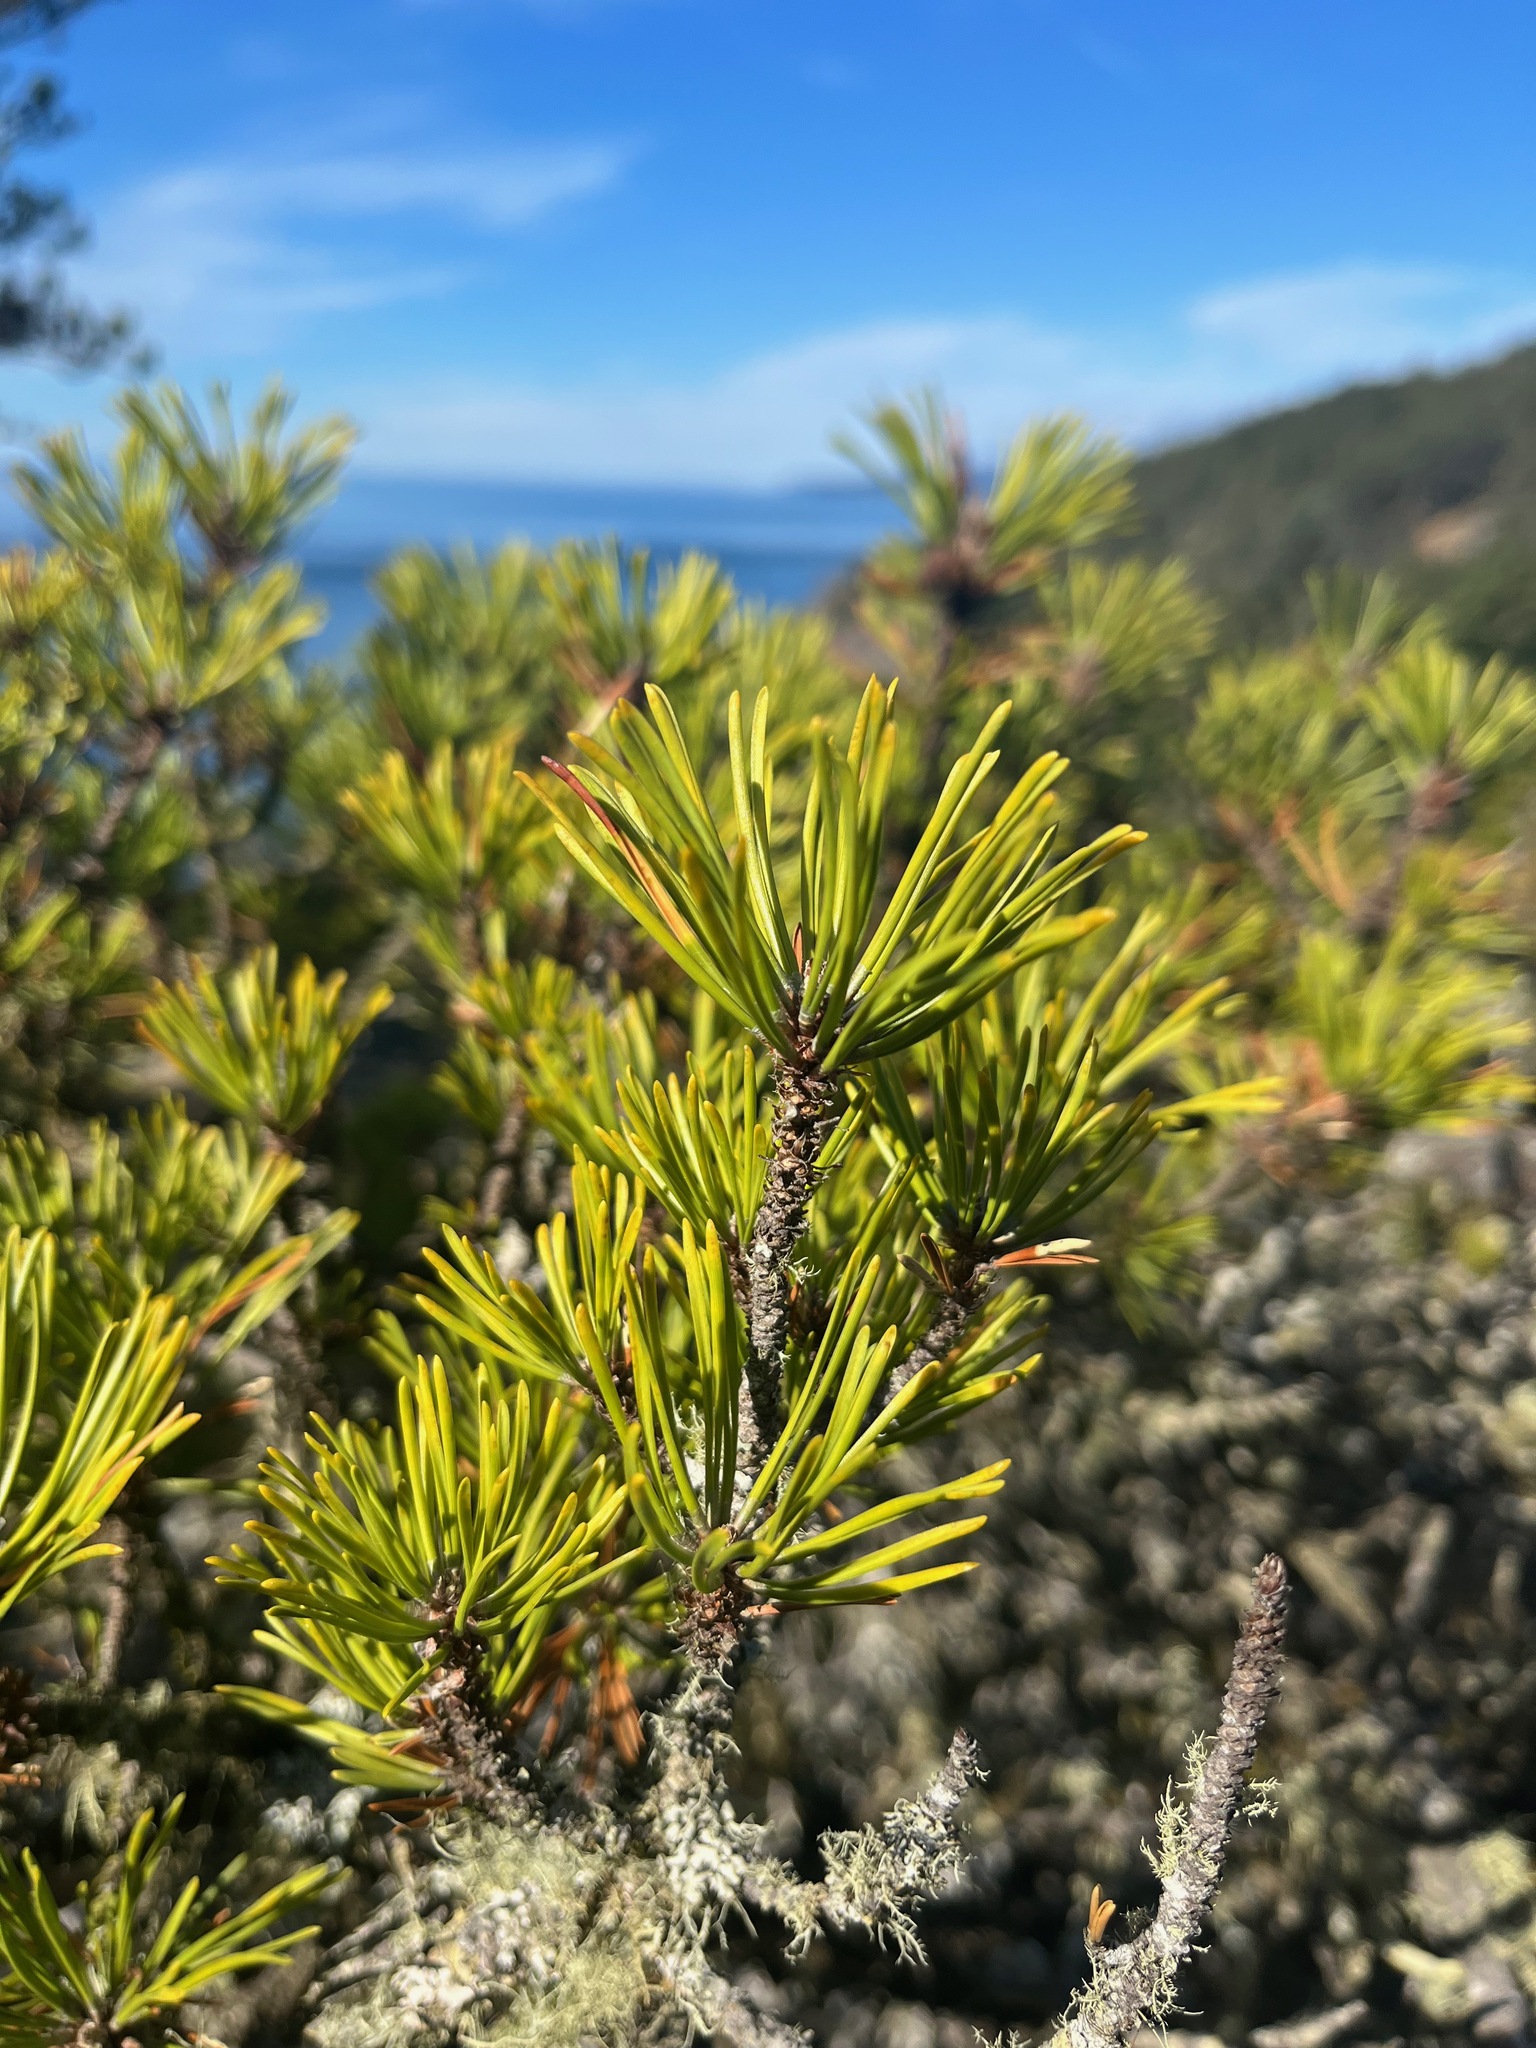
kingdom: Plantae
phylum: Tracheophyta
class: Pinopsida
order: Pinales
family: Pinaceae
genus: Pinus
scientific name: Pinus contorta
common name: Lodgepole pine
